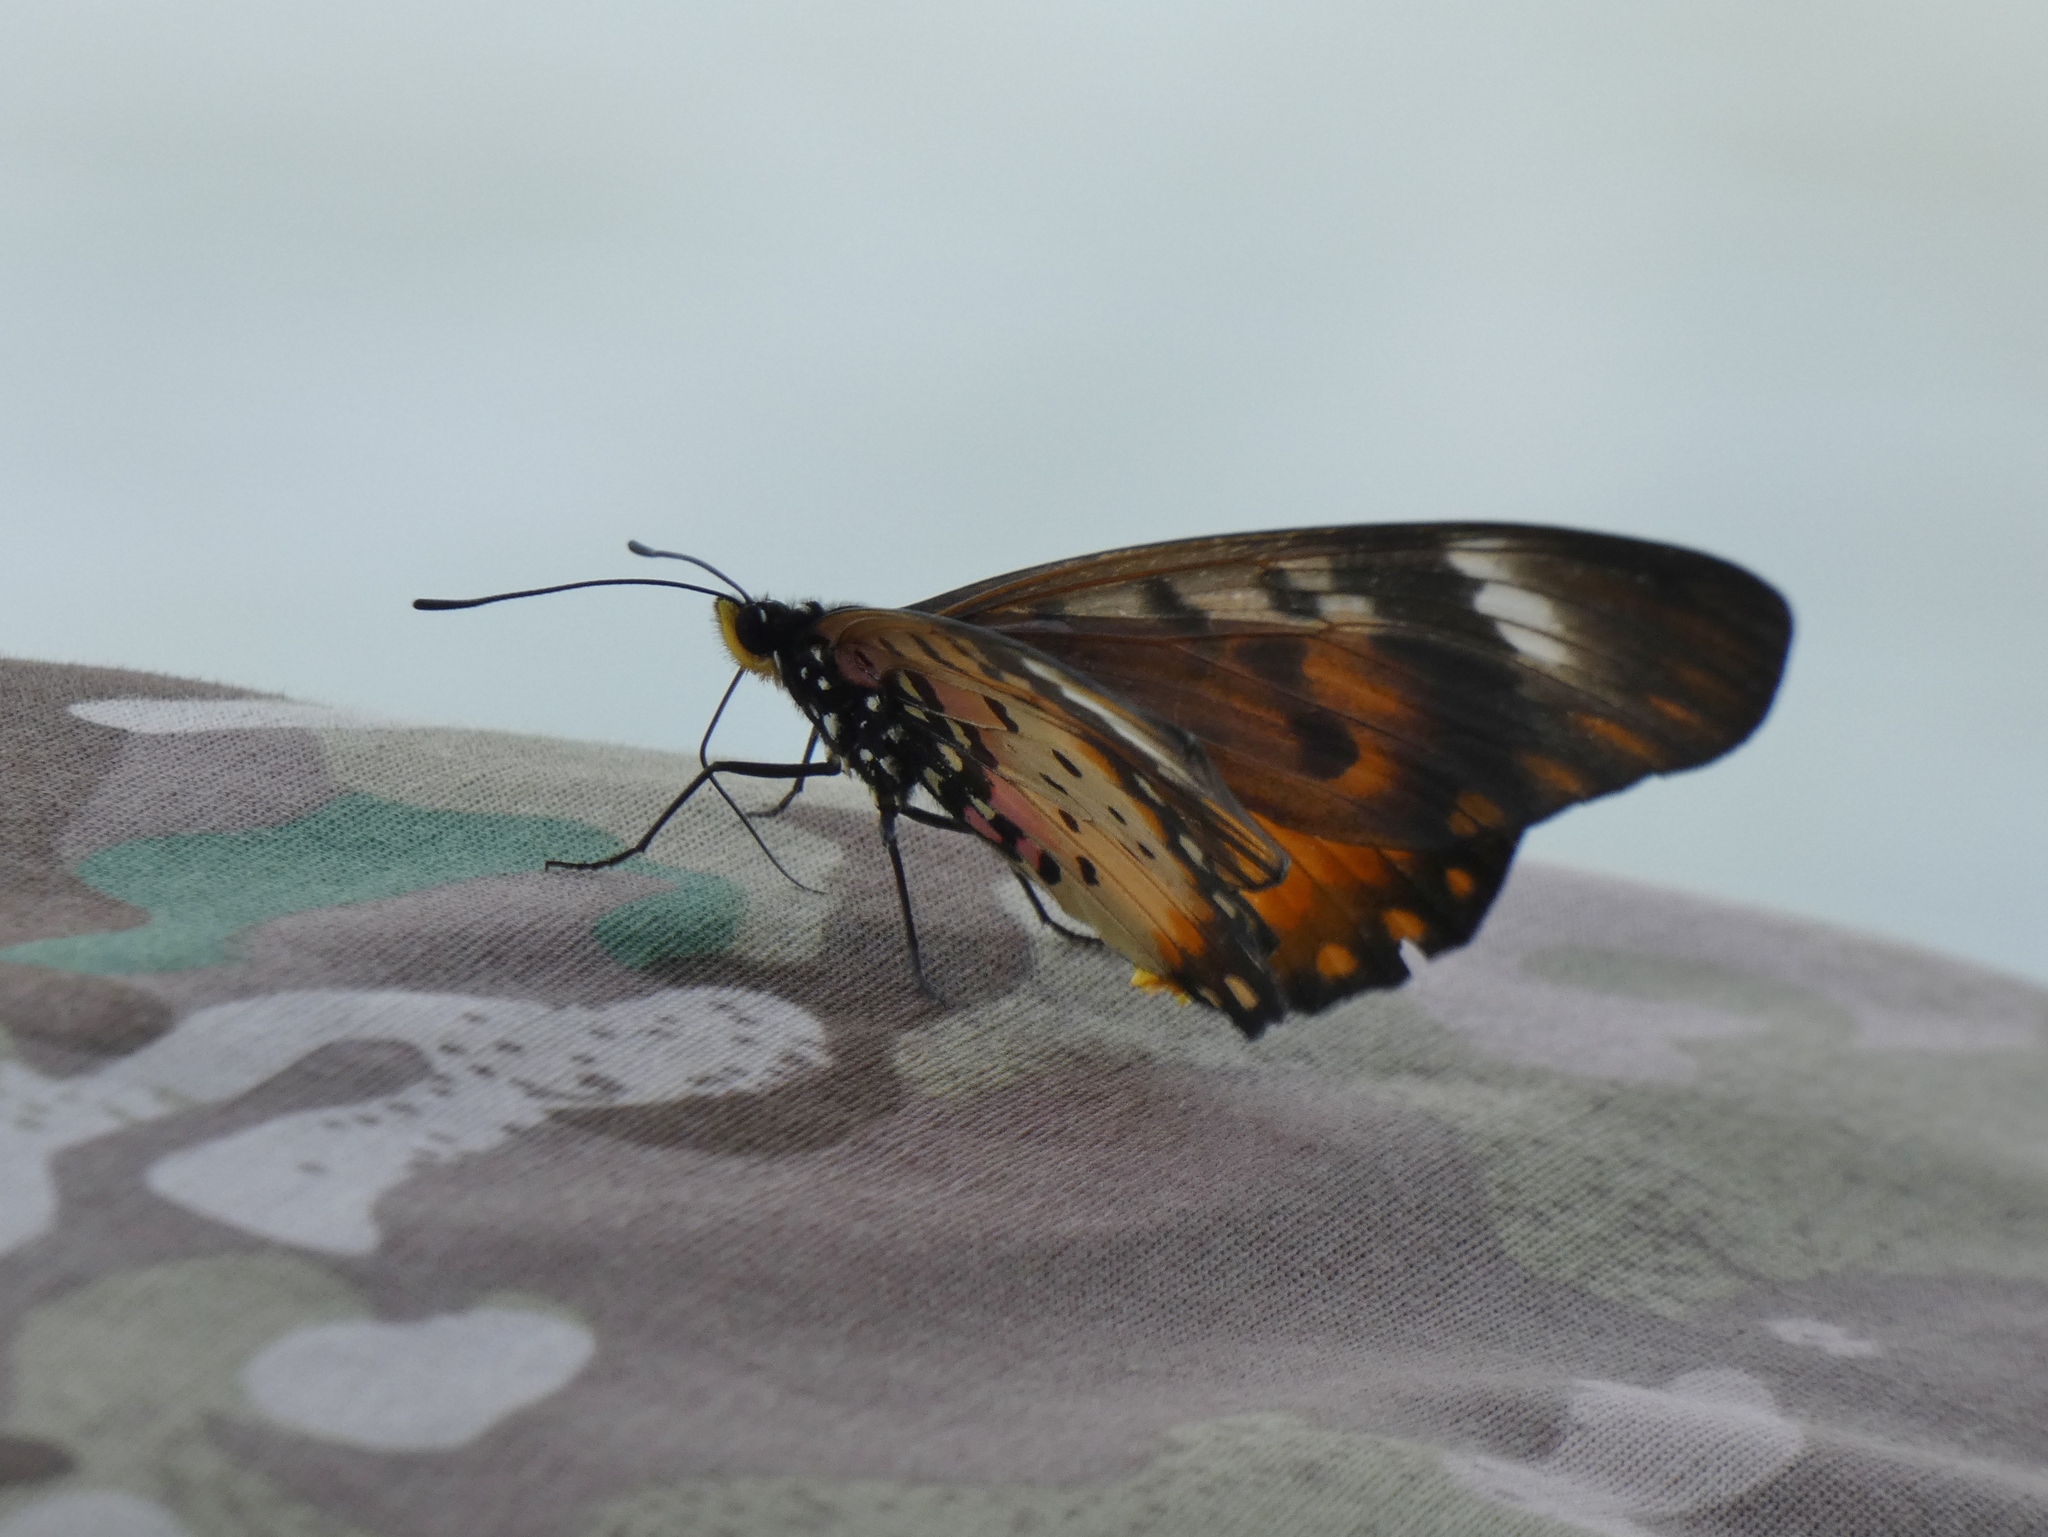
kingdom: Animalia
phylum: Arthropoda
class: Insecta
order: Lepidoptera
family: Nymphalidae
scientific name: Nymphalidae
